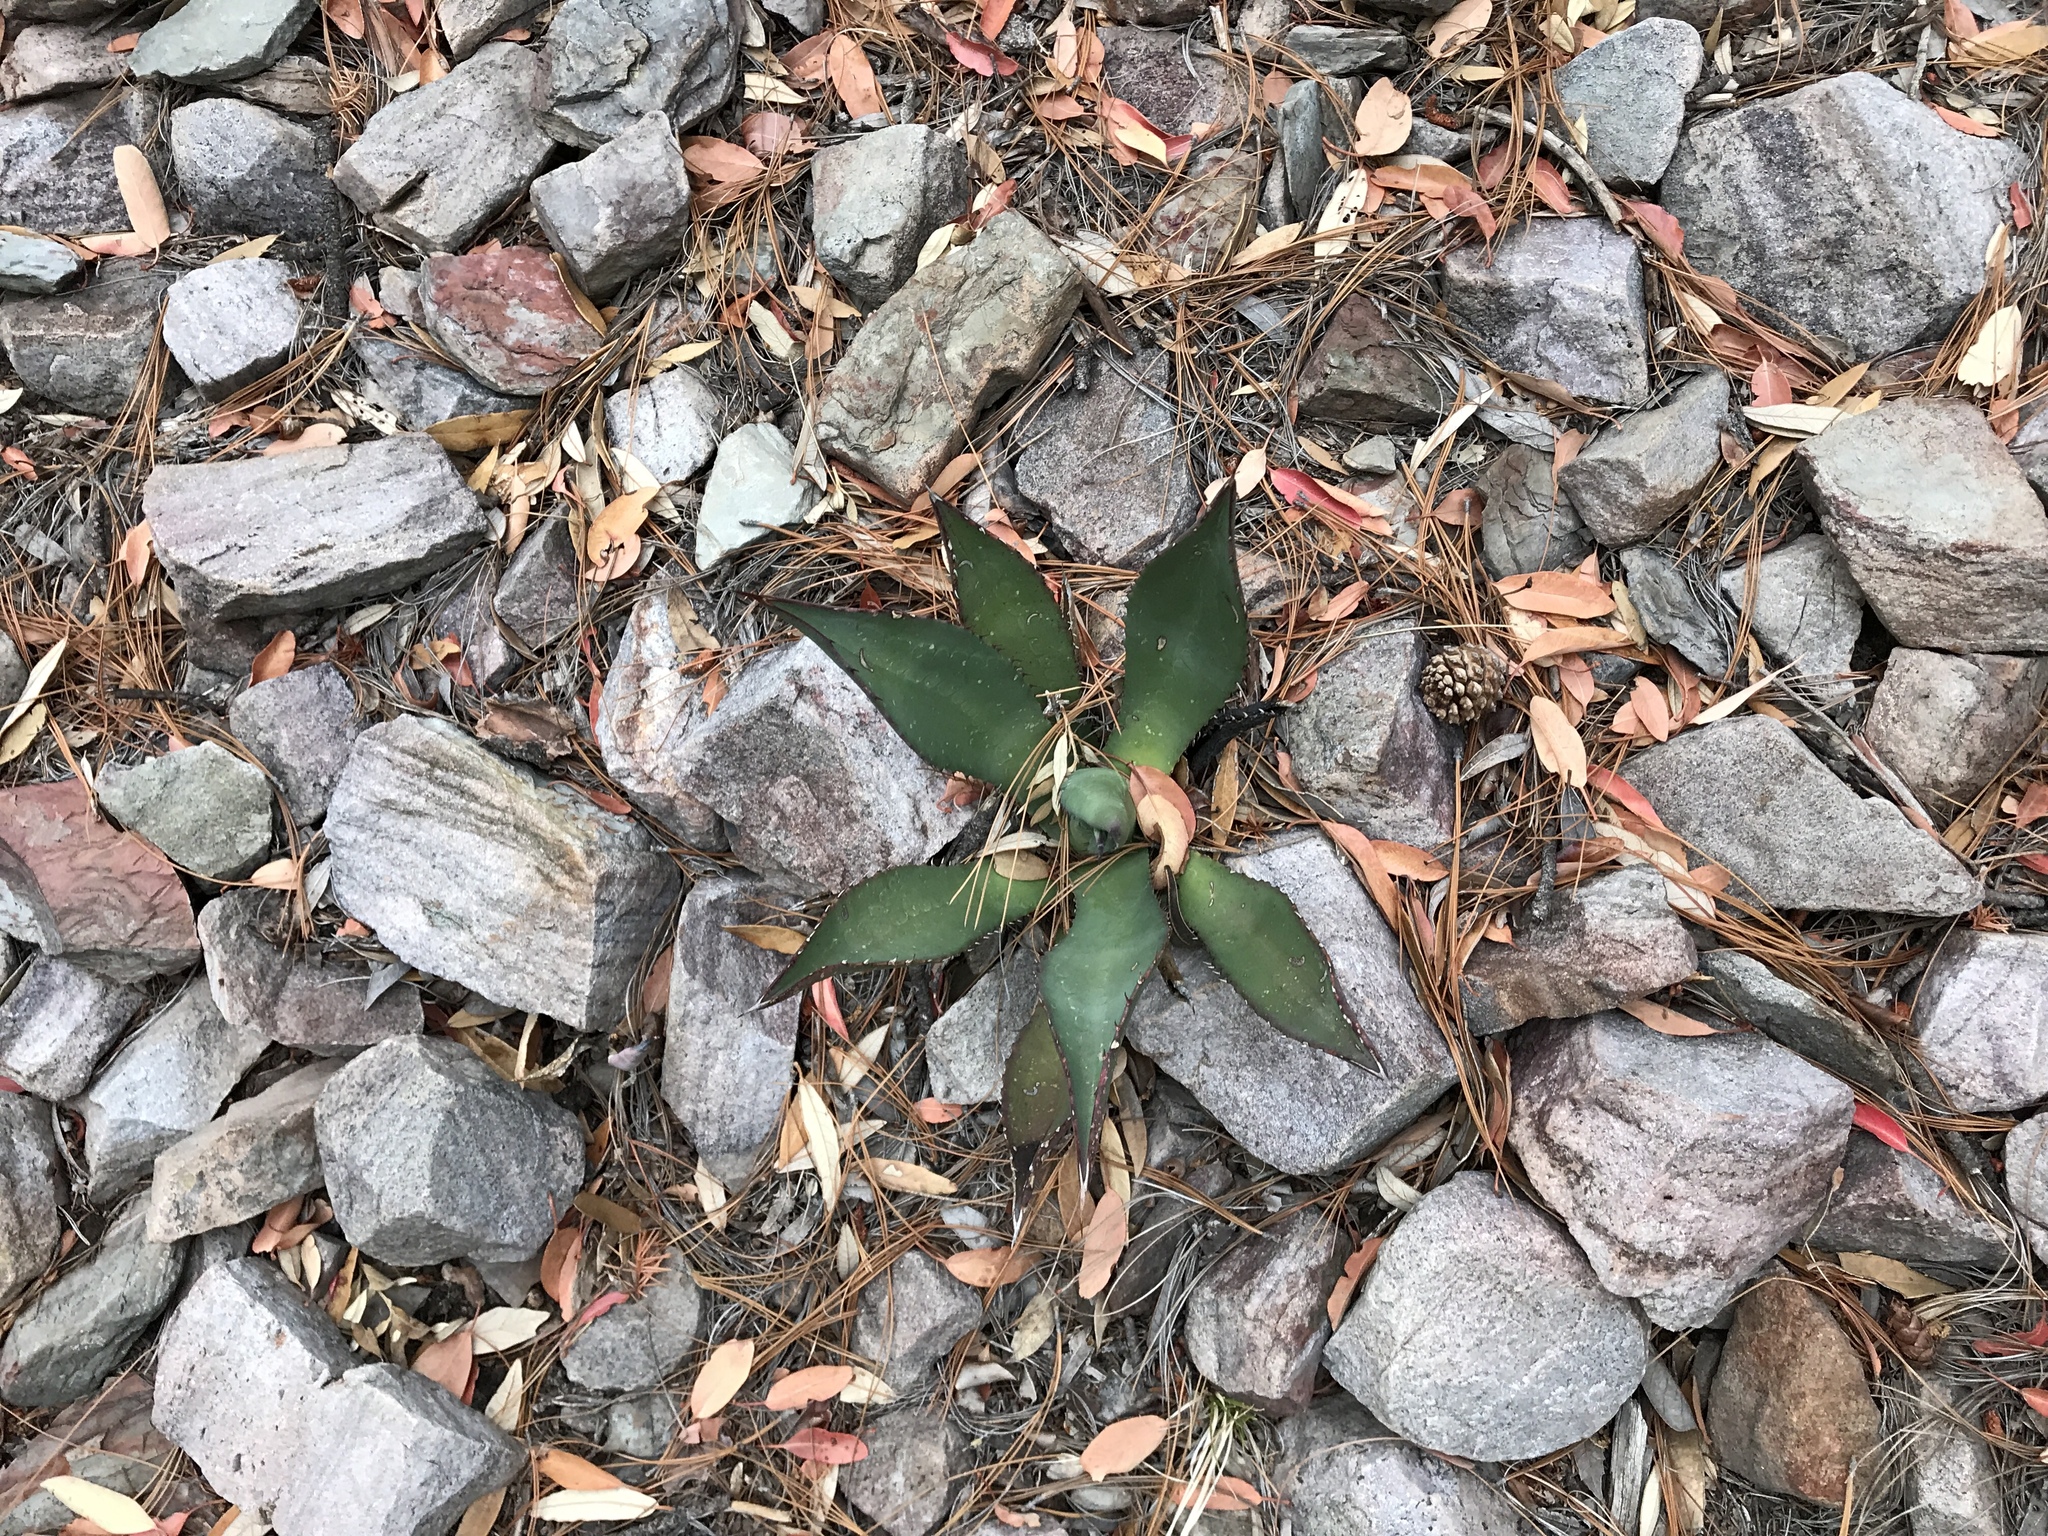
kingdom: Plantae
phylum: Tracheophyta
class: Liliopsida
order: Asparagales
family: Asparagaceae
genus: Agave
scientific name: Agave palmeri
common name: Palmer agave
